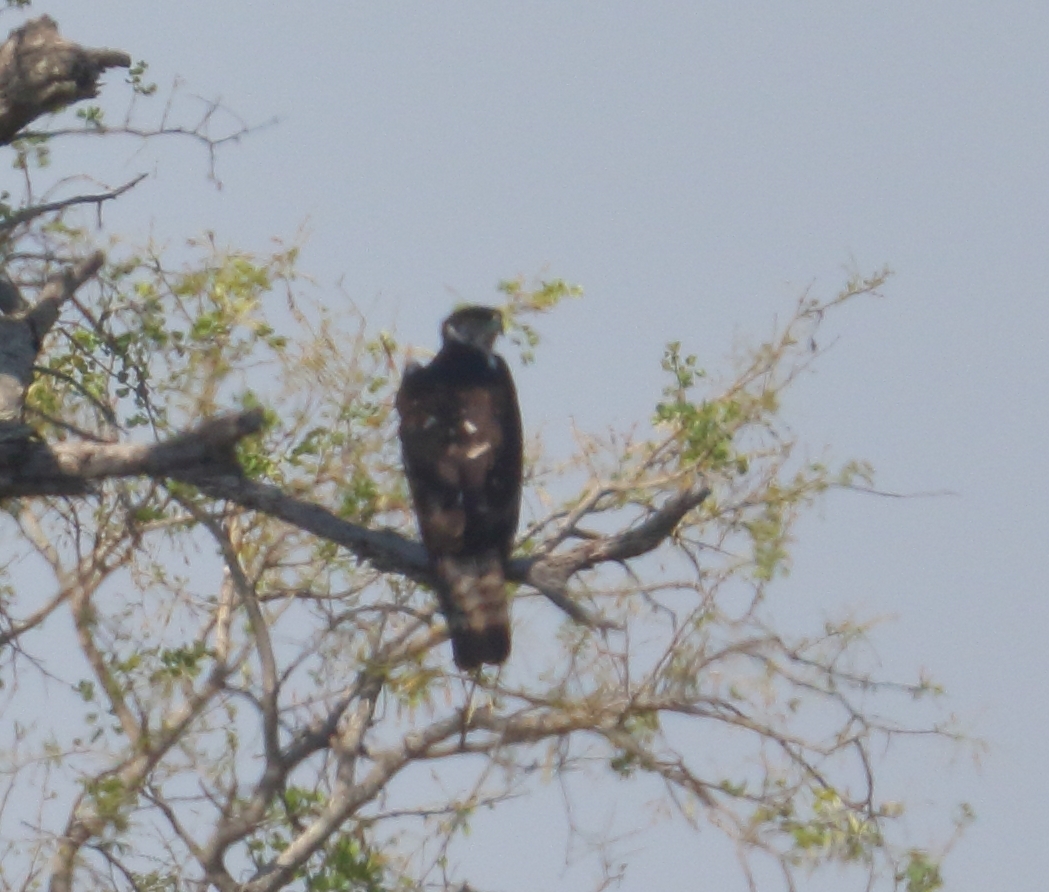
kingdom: Animalia
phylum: Chordata
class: Aves
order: Accipitriformes
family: Accipitridae
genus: Aquila
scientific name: Aquila spilogaster
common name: African hawk-eagle
